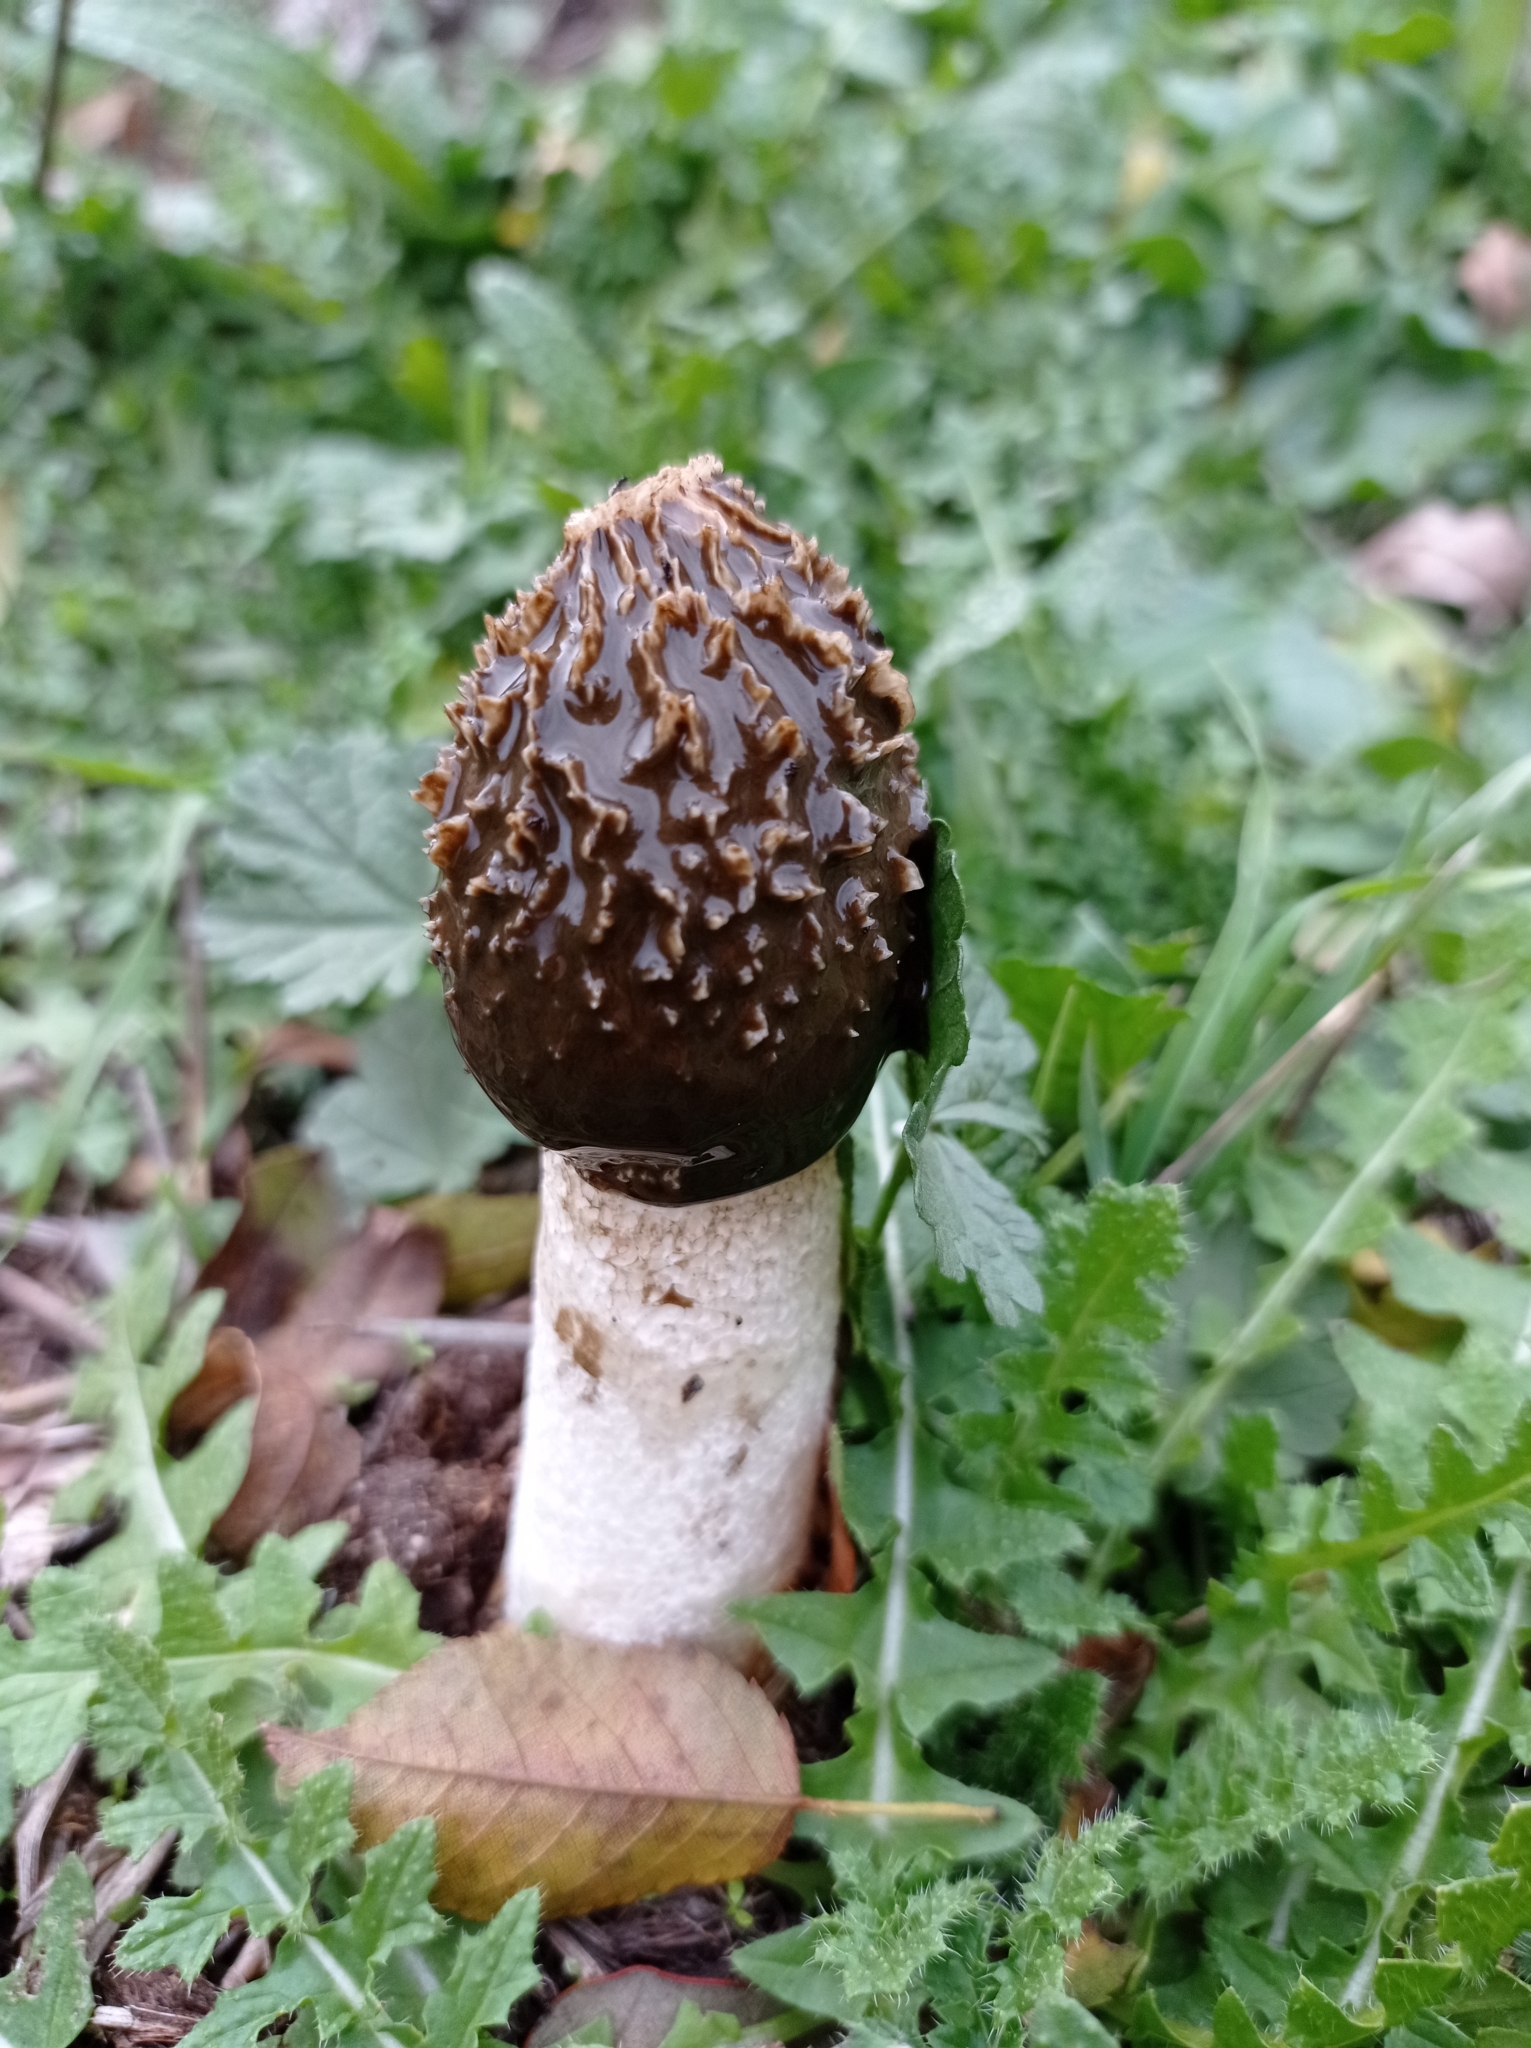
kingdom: Fungi
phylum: Basidiomycota
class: Agaricomycetes
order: Phallales
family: Phallaceae
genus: Phallus
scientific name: Phallus impudicus
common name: Common stinkhorn
